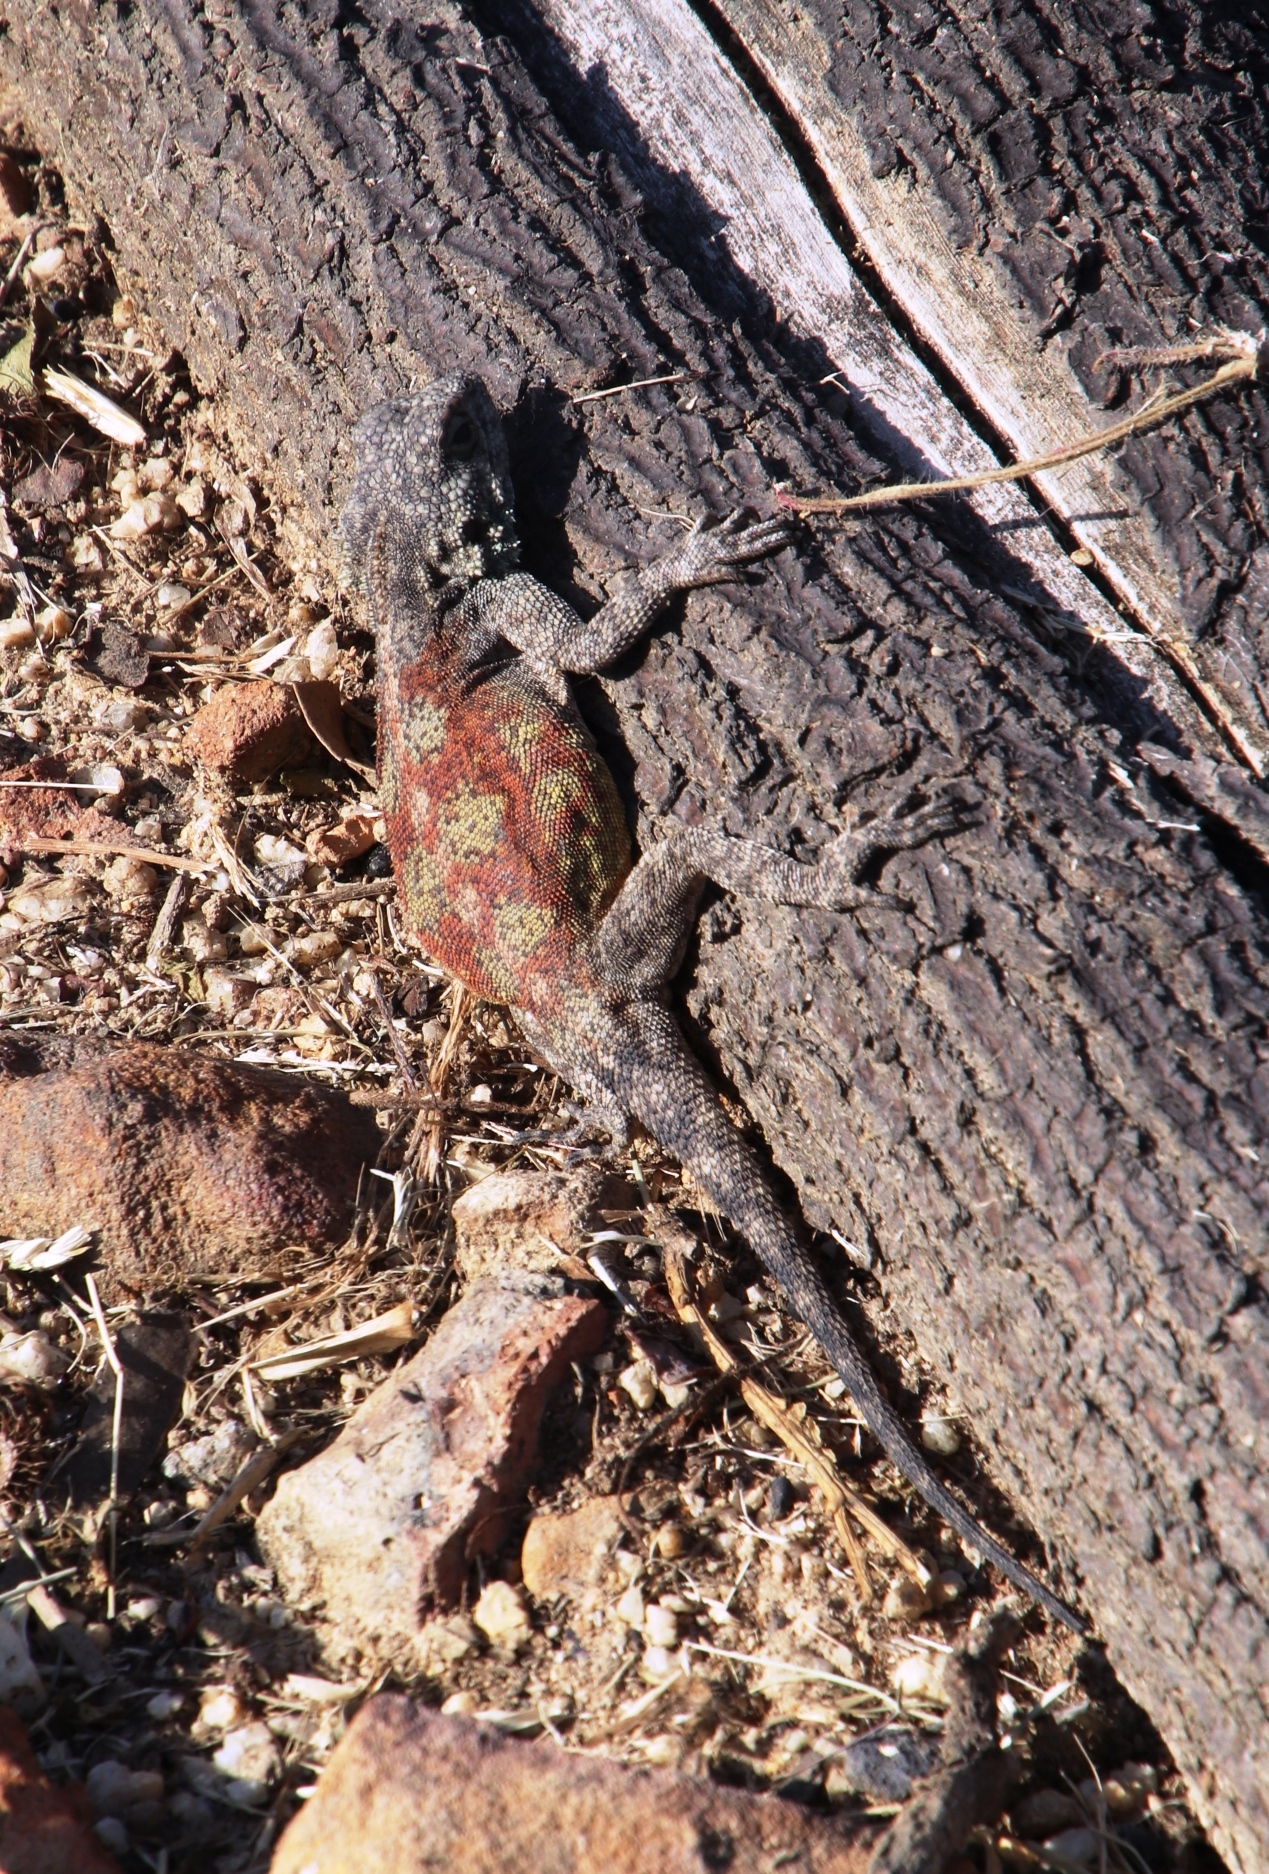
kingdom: Animalia
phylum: Chordata
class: Squamata
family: Agamidae
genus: Agama
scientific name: Agama atra
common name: Southern african rock agama
